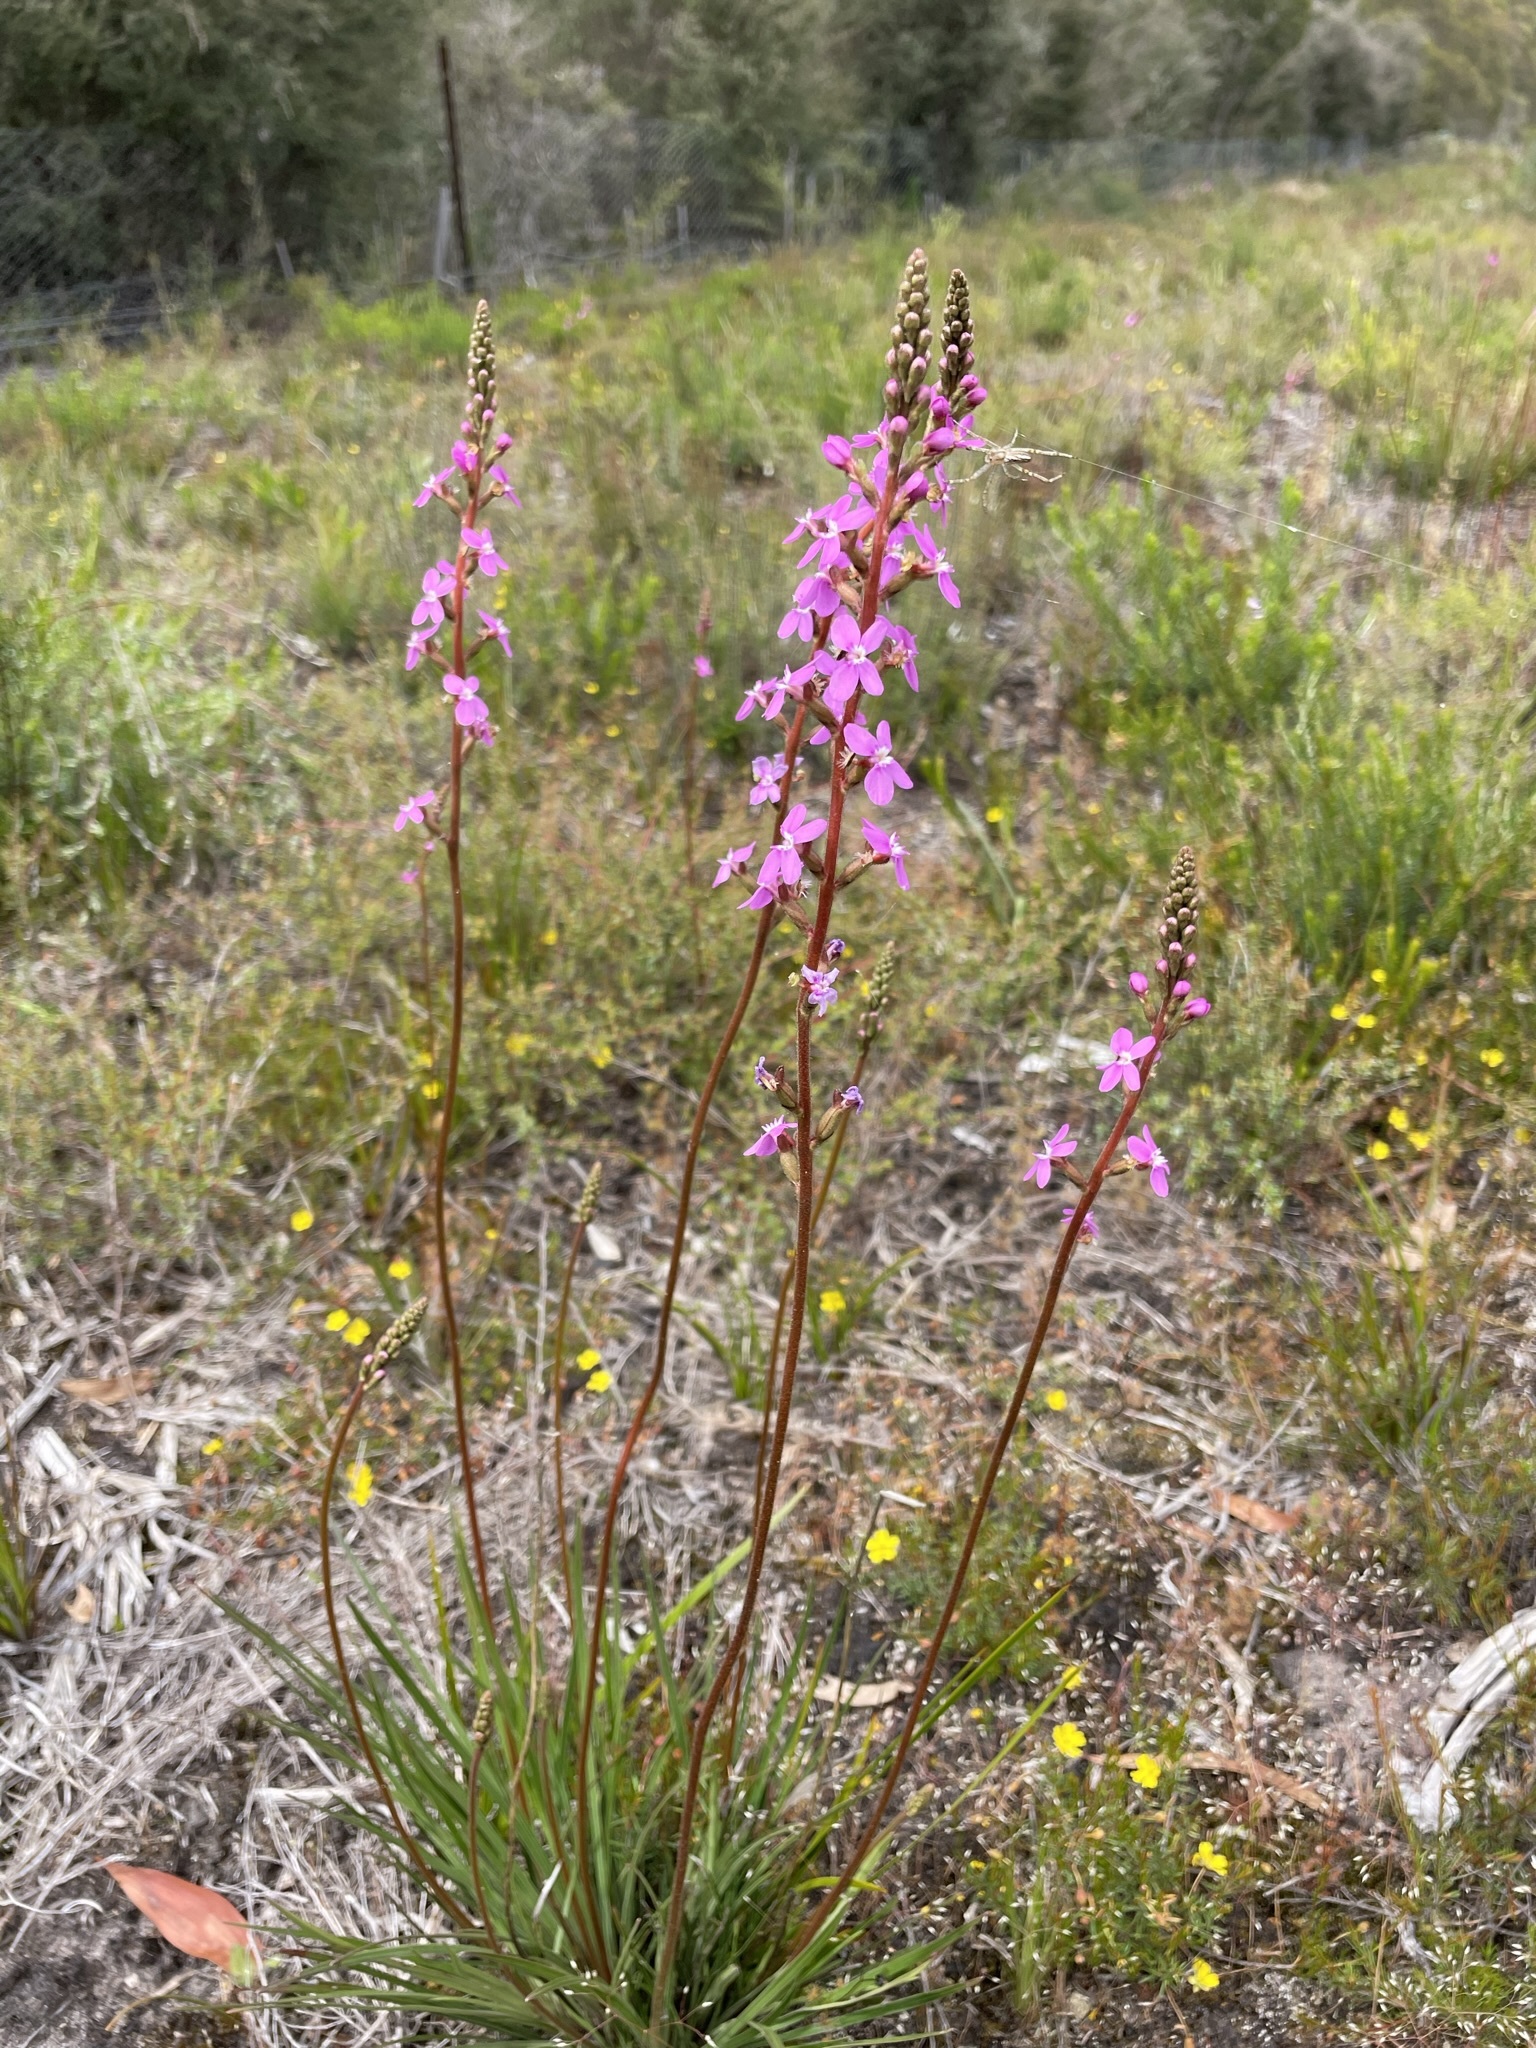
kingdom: Plantae
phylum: Tracheophyta
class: Magnoliopsida
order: Asterales
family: Stylidiaceae
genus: Stylidium
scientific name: Stylidium graminifolium
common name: Grass triggerplant
